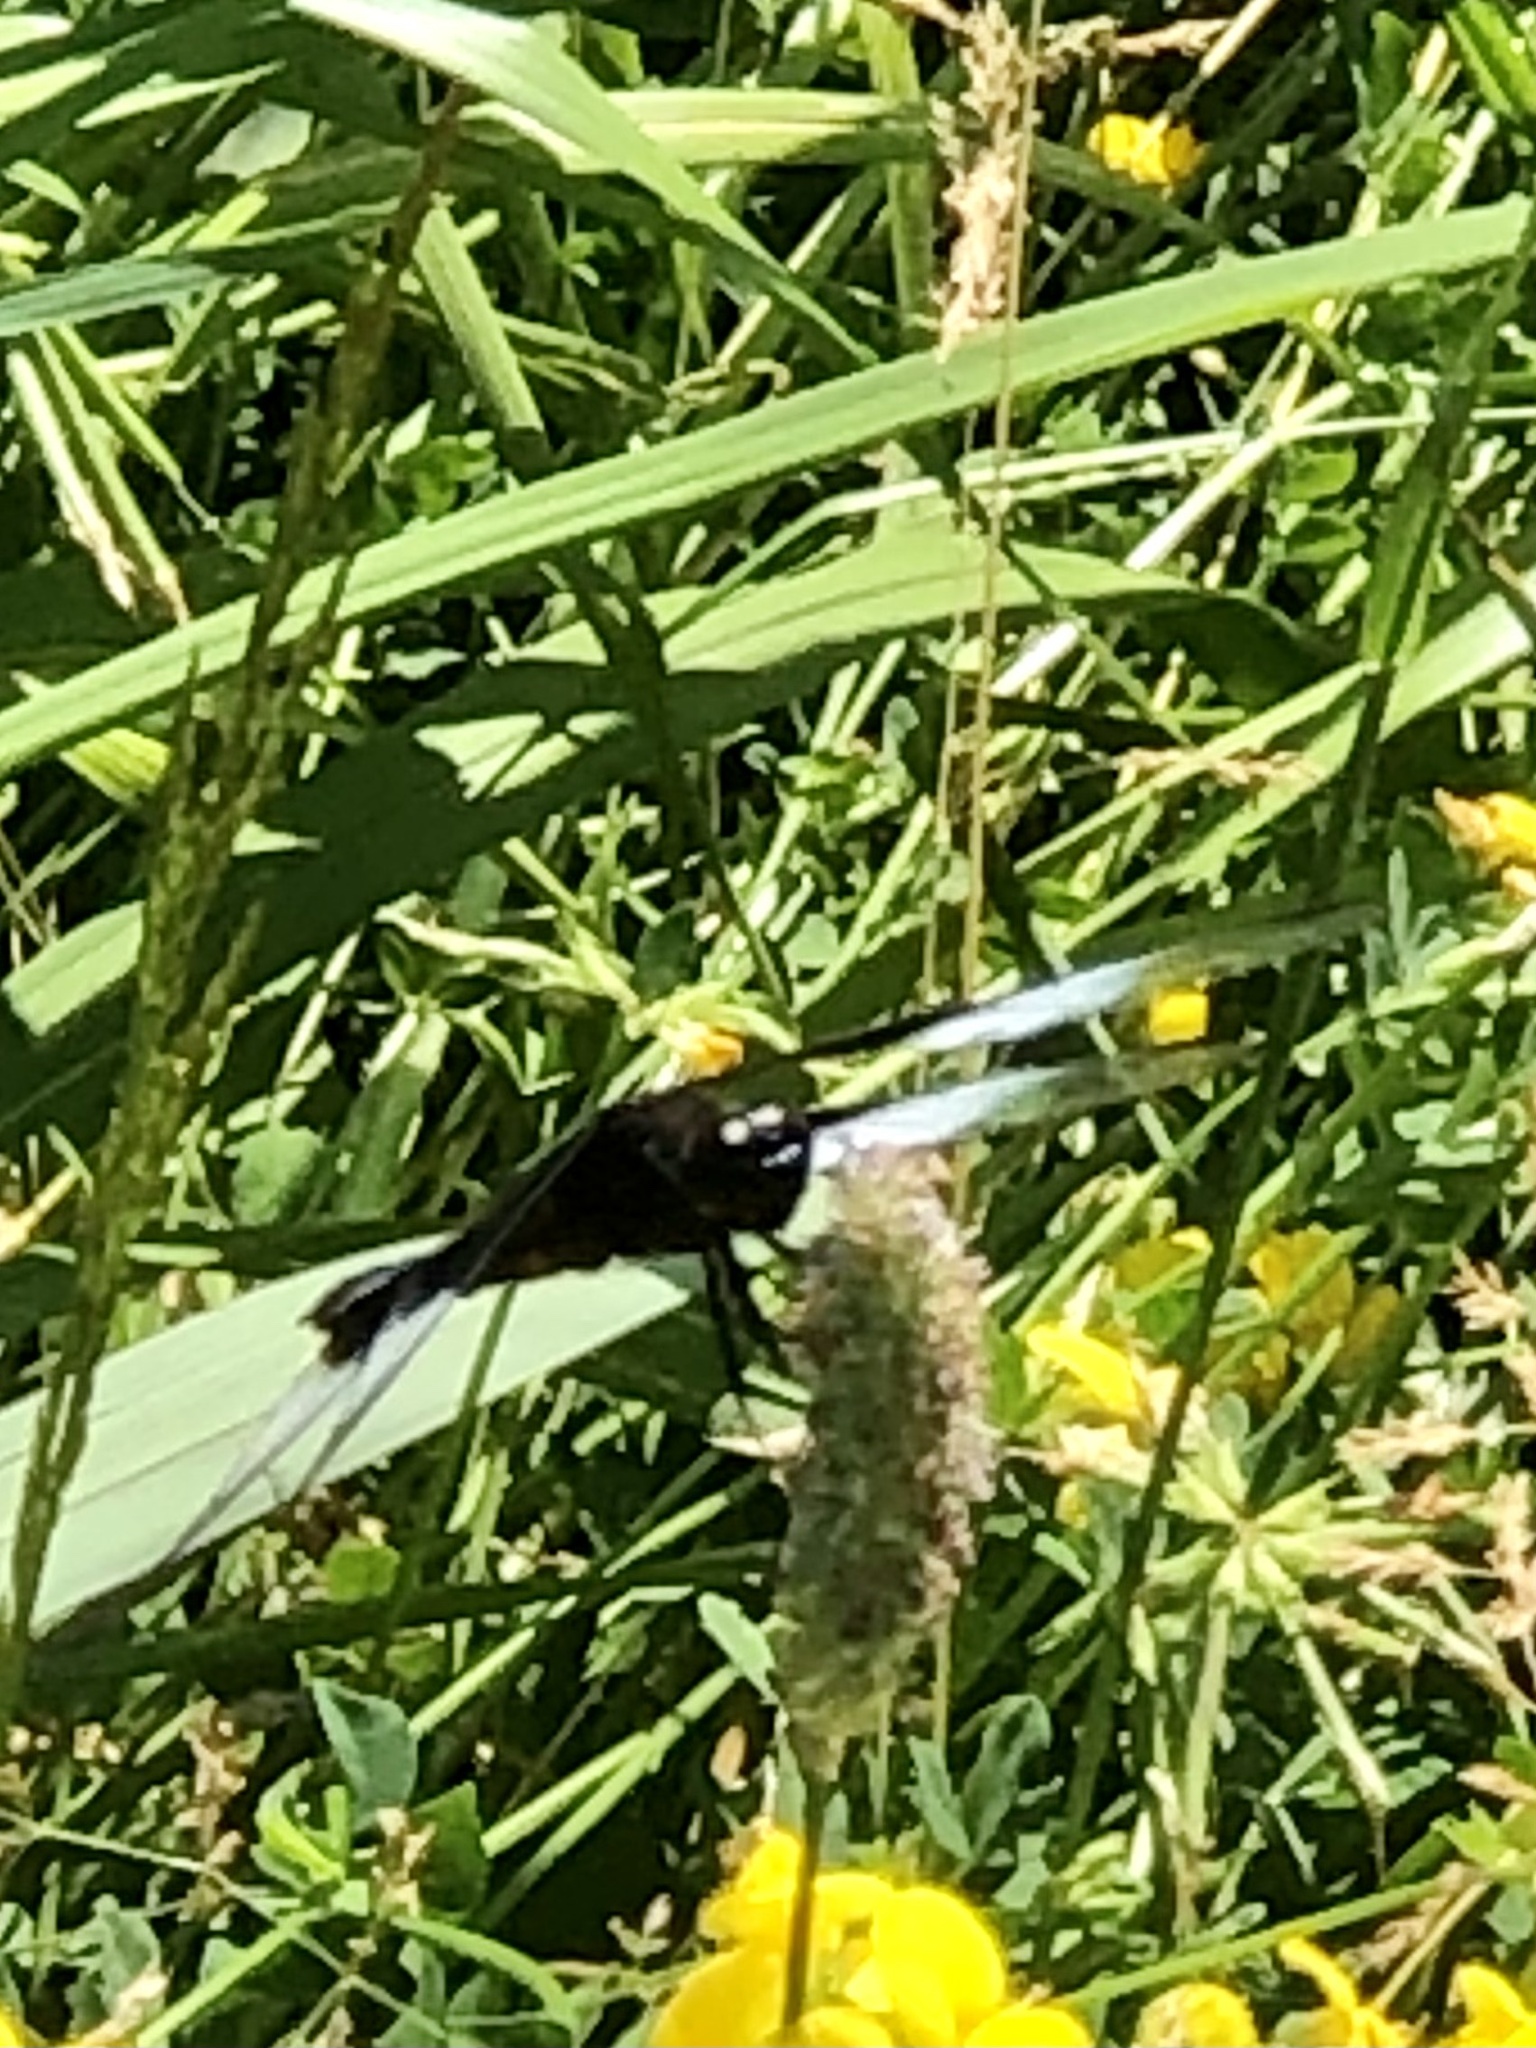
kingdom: Animalia
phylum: Arthropoda
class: Insecta
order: Odonata
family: Libellulidae
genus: Libellula
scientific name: Libellula luctuosa
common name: Widow skimmer
